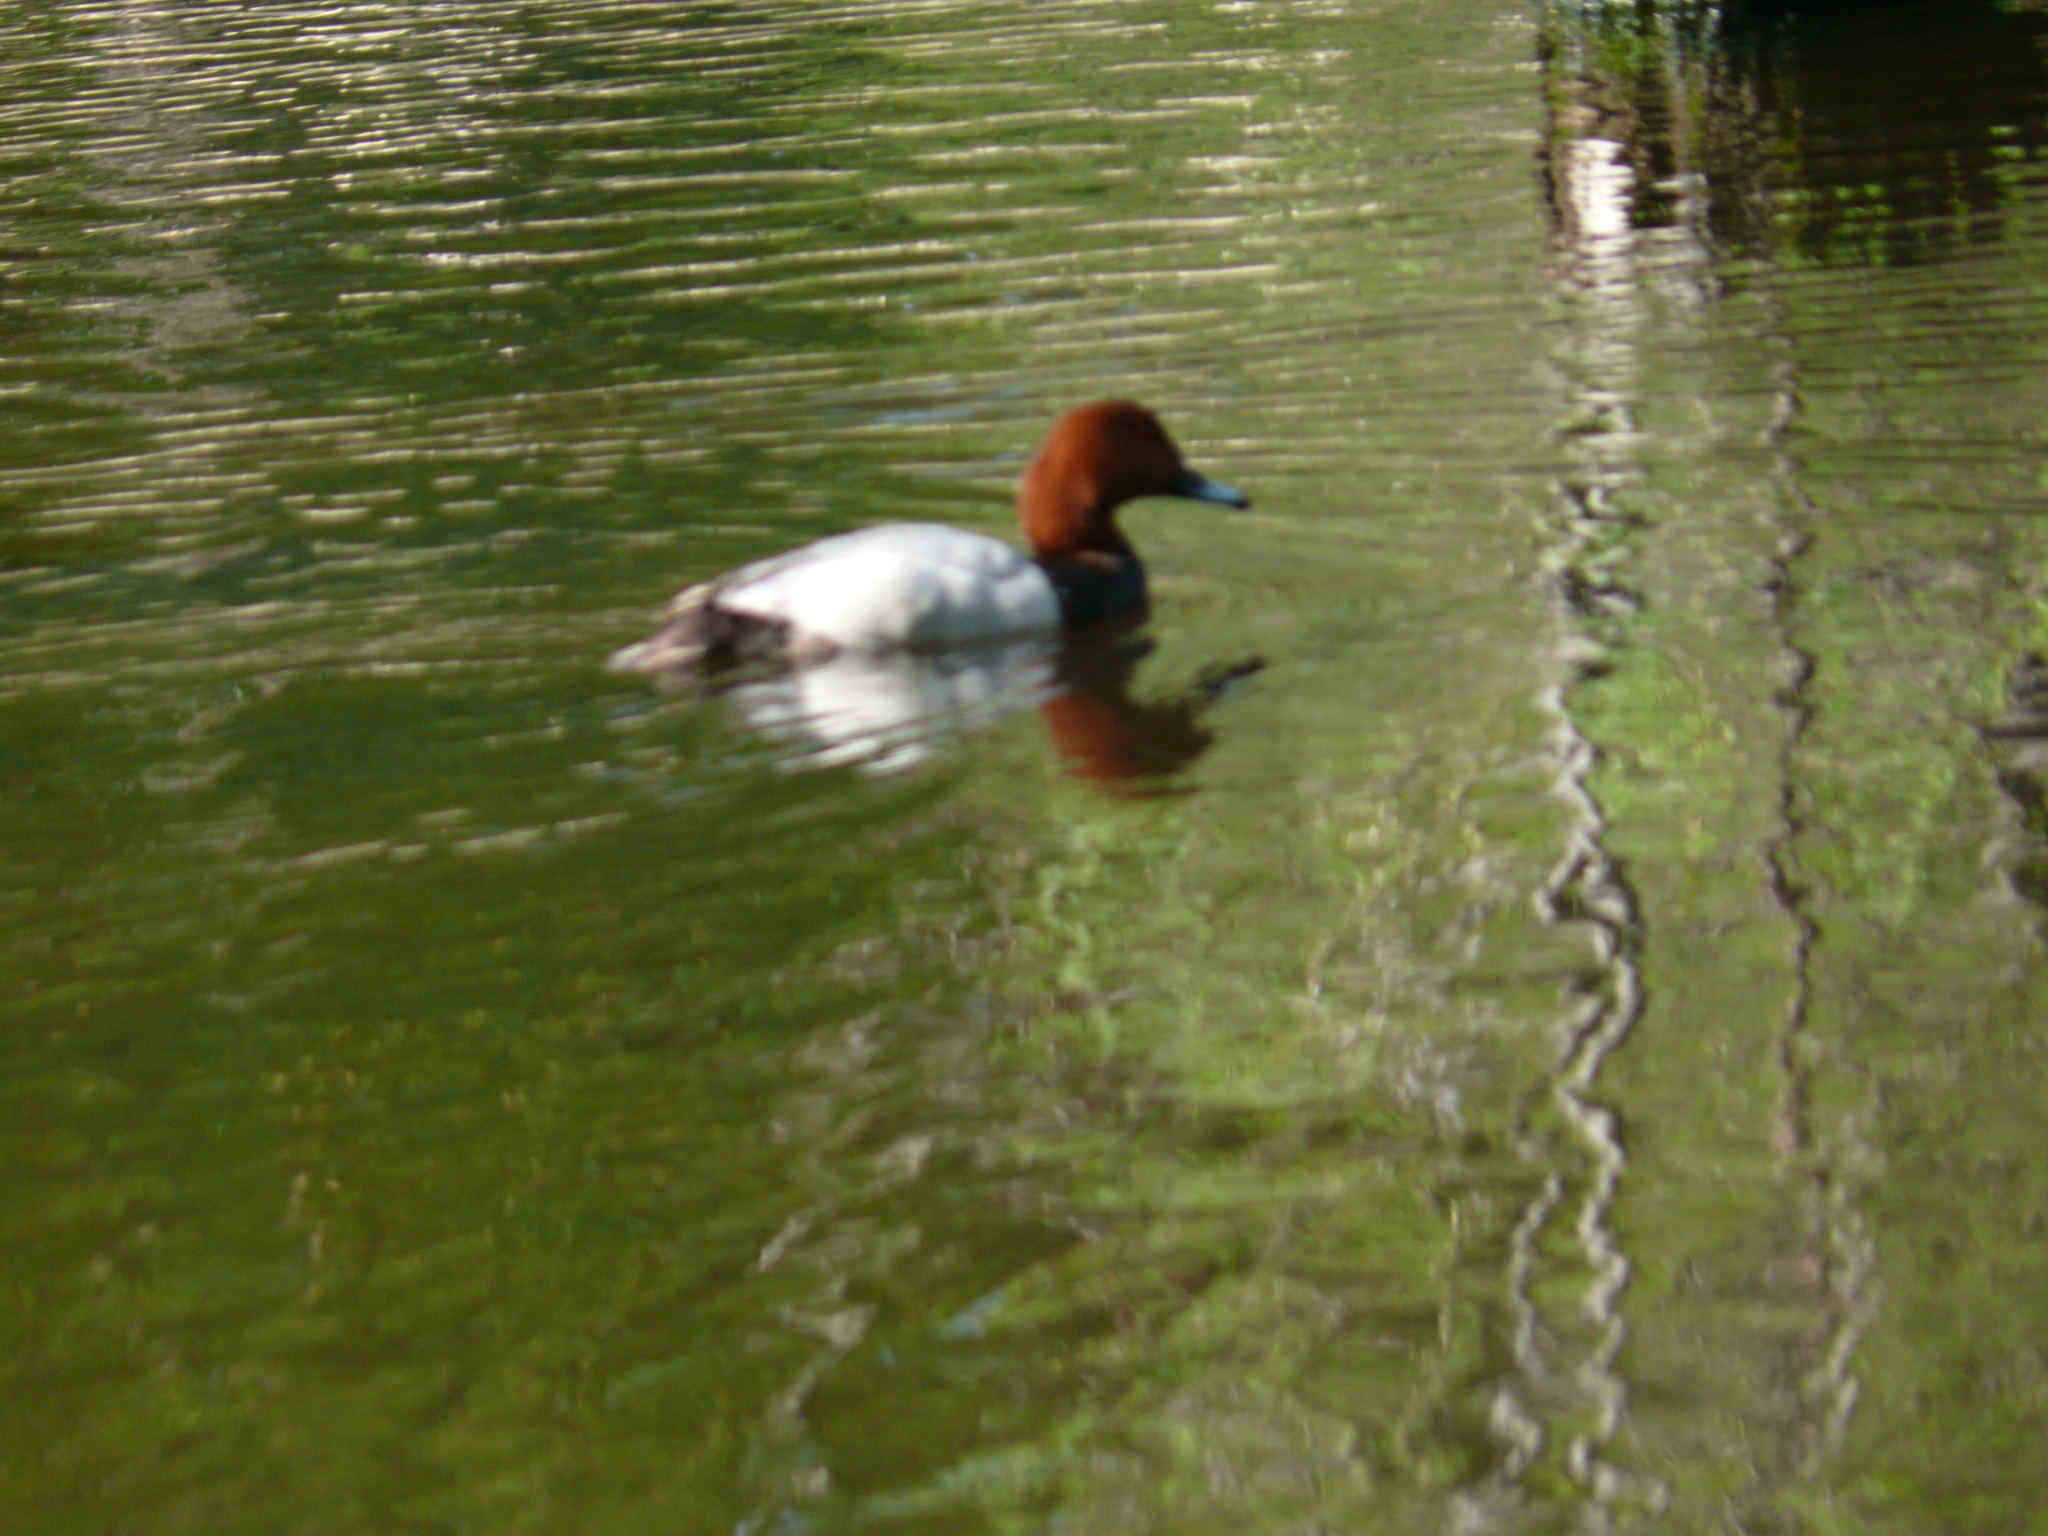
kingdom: Animalia
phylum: Chordata
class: Aves
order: Anseriformes
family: Anatidae
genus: Aythya
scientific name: Aythya ferina
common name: Common pochard
